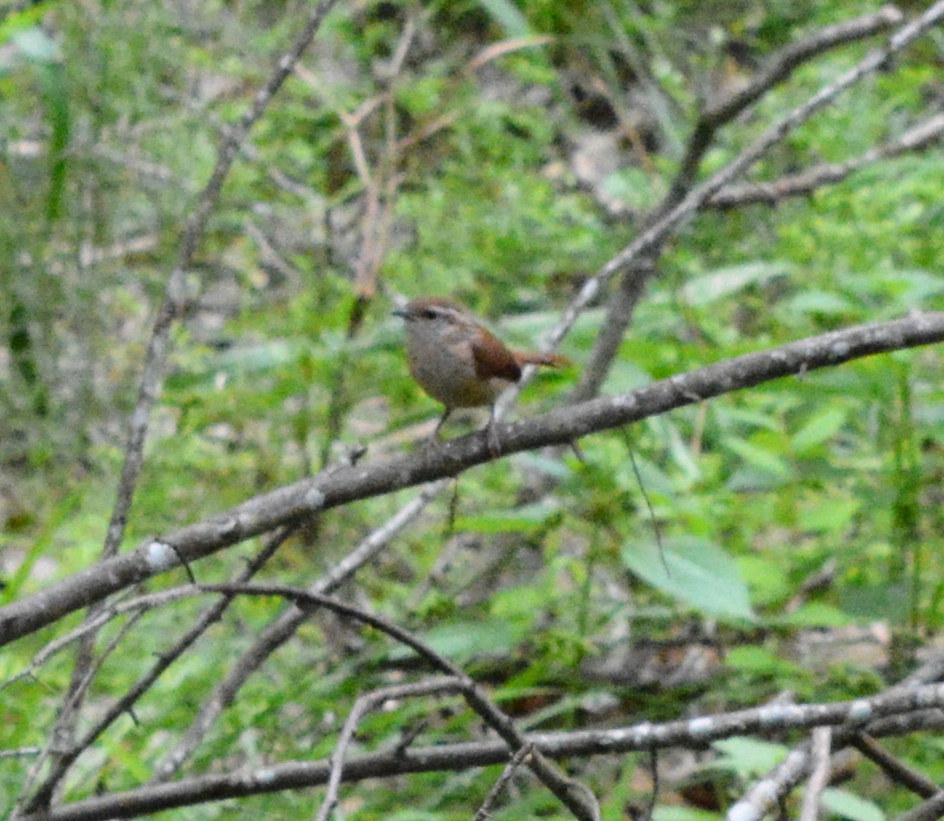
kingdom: Animalia
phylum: Chordata
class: Aves
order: Passeriformes
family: Troglodytidae
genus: Thryothorus
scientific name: Thryothorus ludovicianus
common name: Carolina wren
